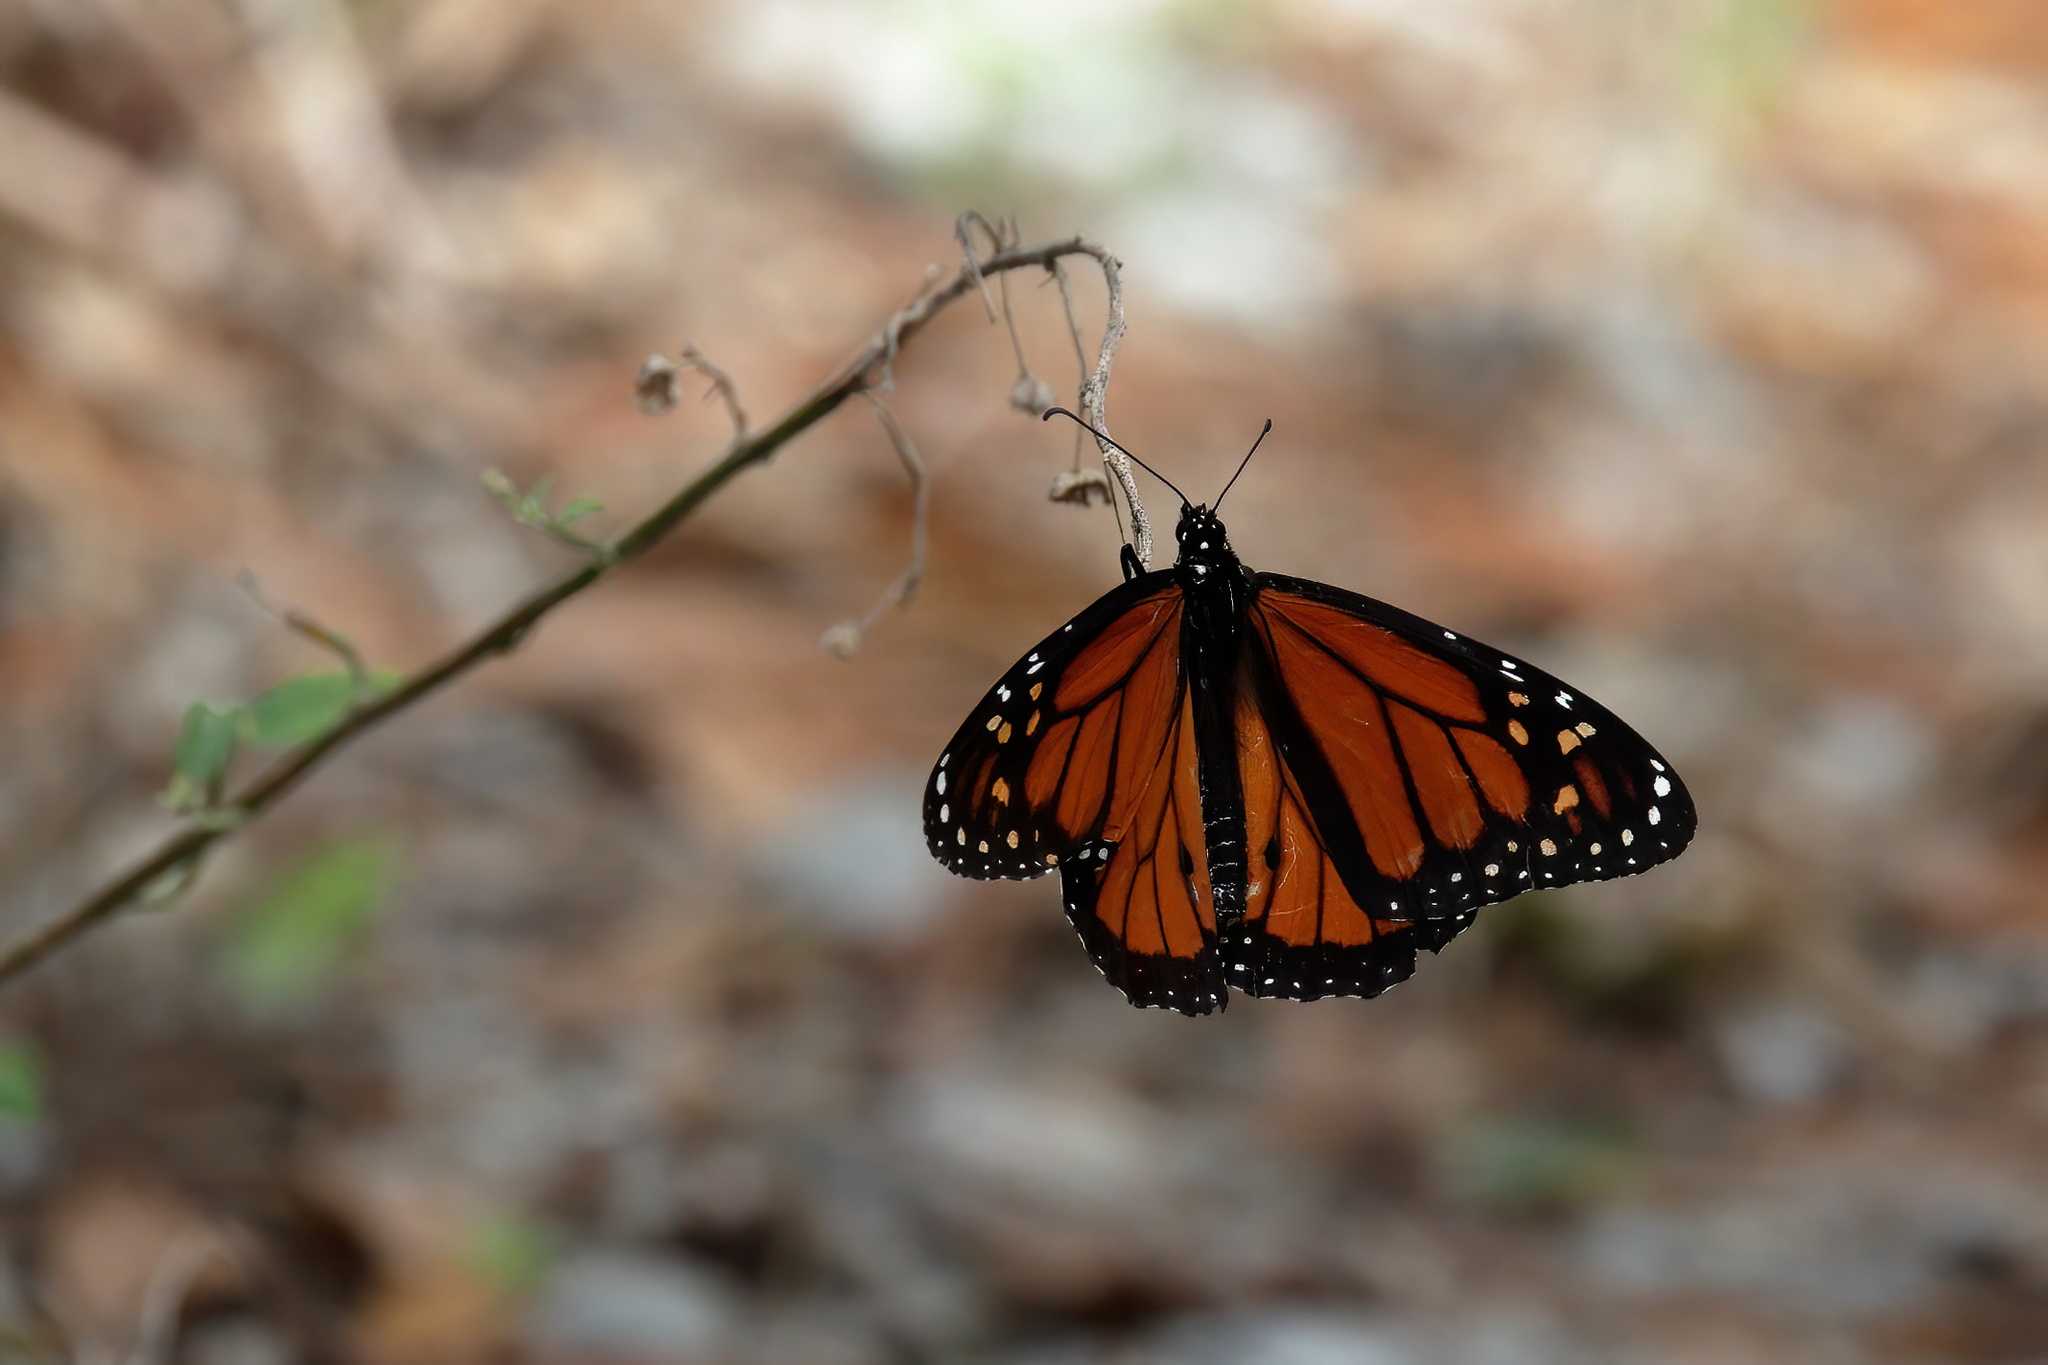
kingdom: Animalia
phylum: Arthropoda
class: Insecta
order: Lepidoptera
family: Nymphalidae
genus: Danaus
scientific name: Danaus plexippus
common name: Monarch
